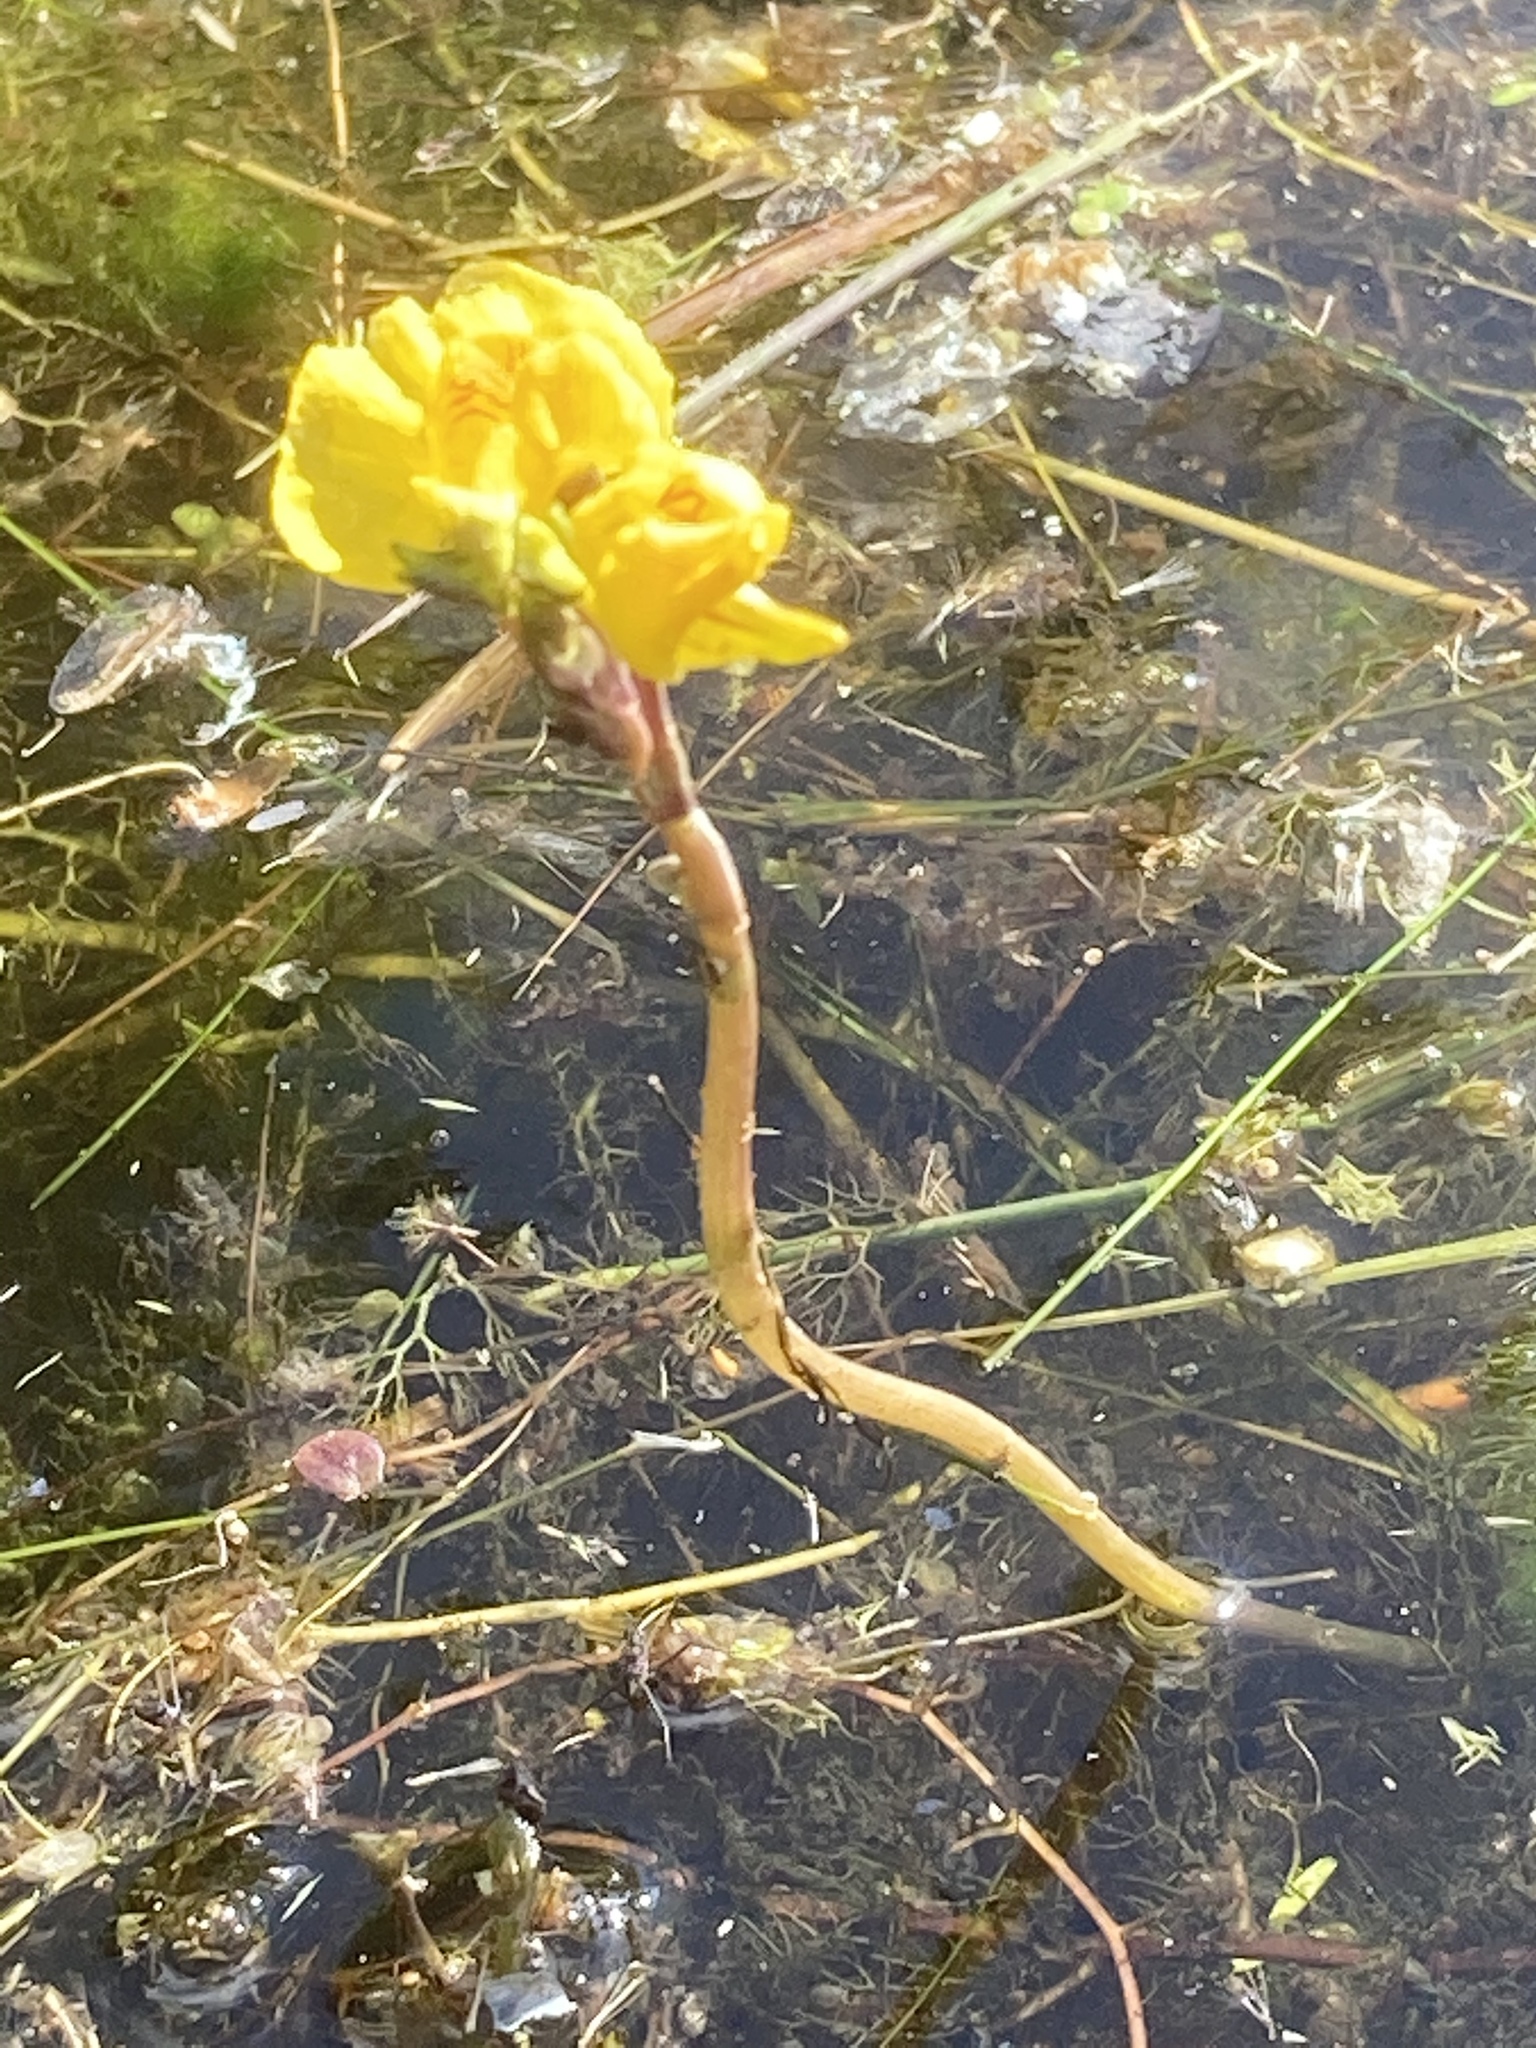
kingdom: Plantae
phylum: Tracheophyta
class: Magnoliopsida
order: Lamiales
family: Lentibulariaceae
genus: Utricularia
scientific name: Utricularia australis
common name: Bladderwort
